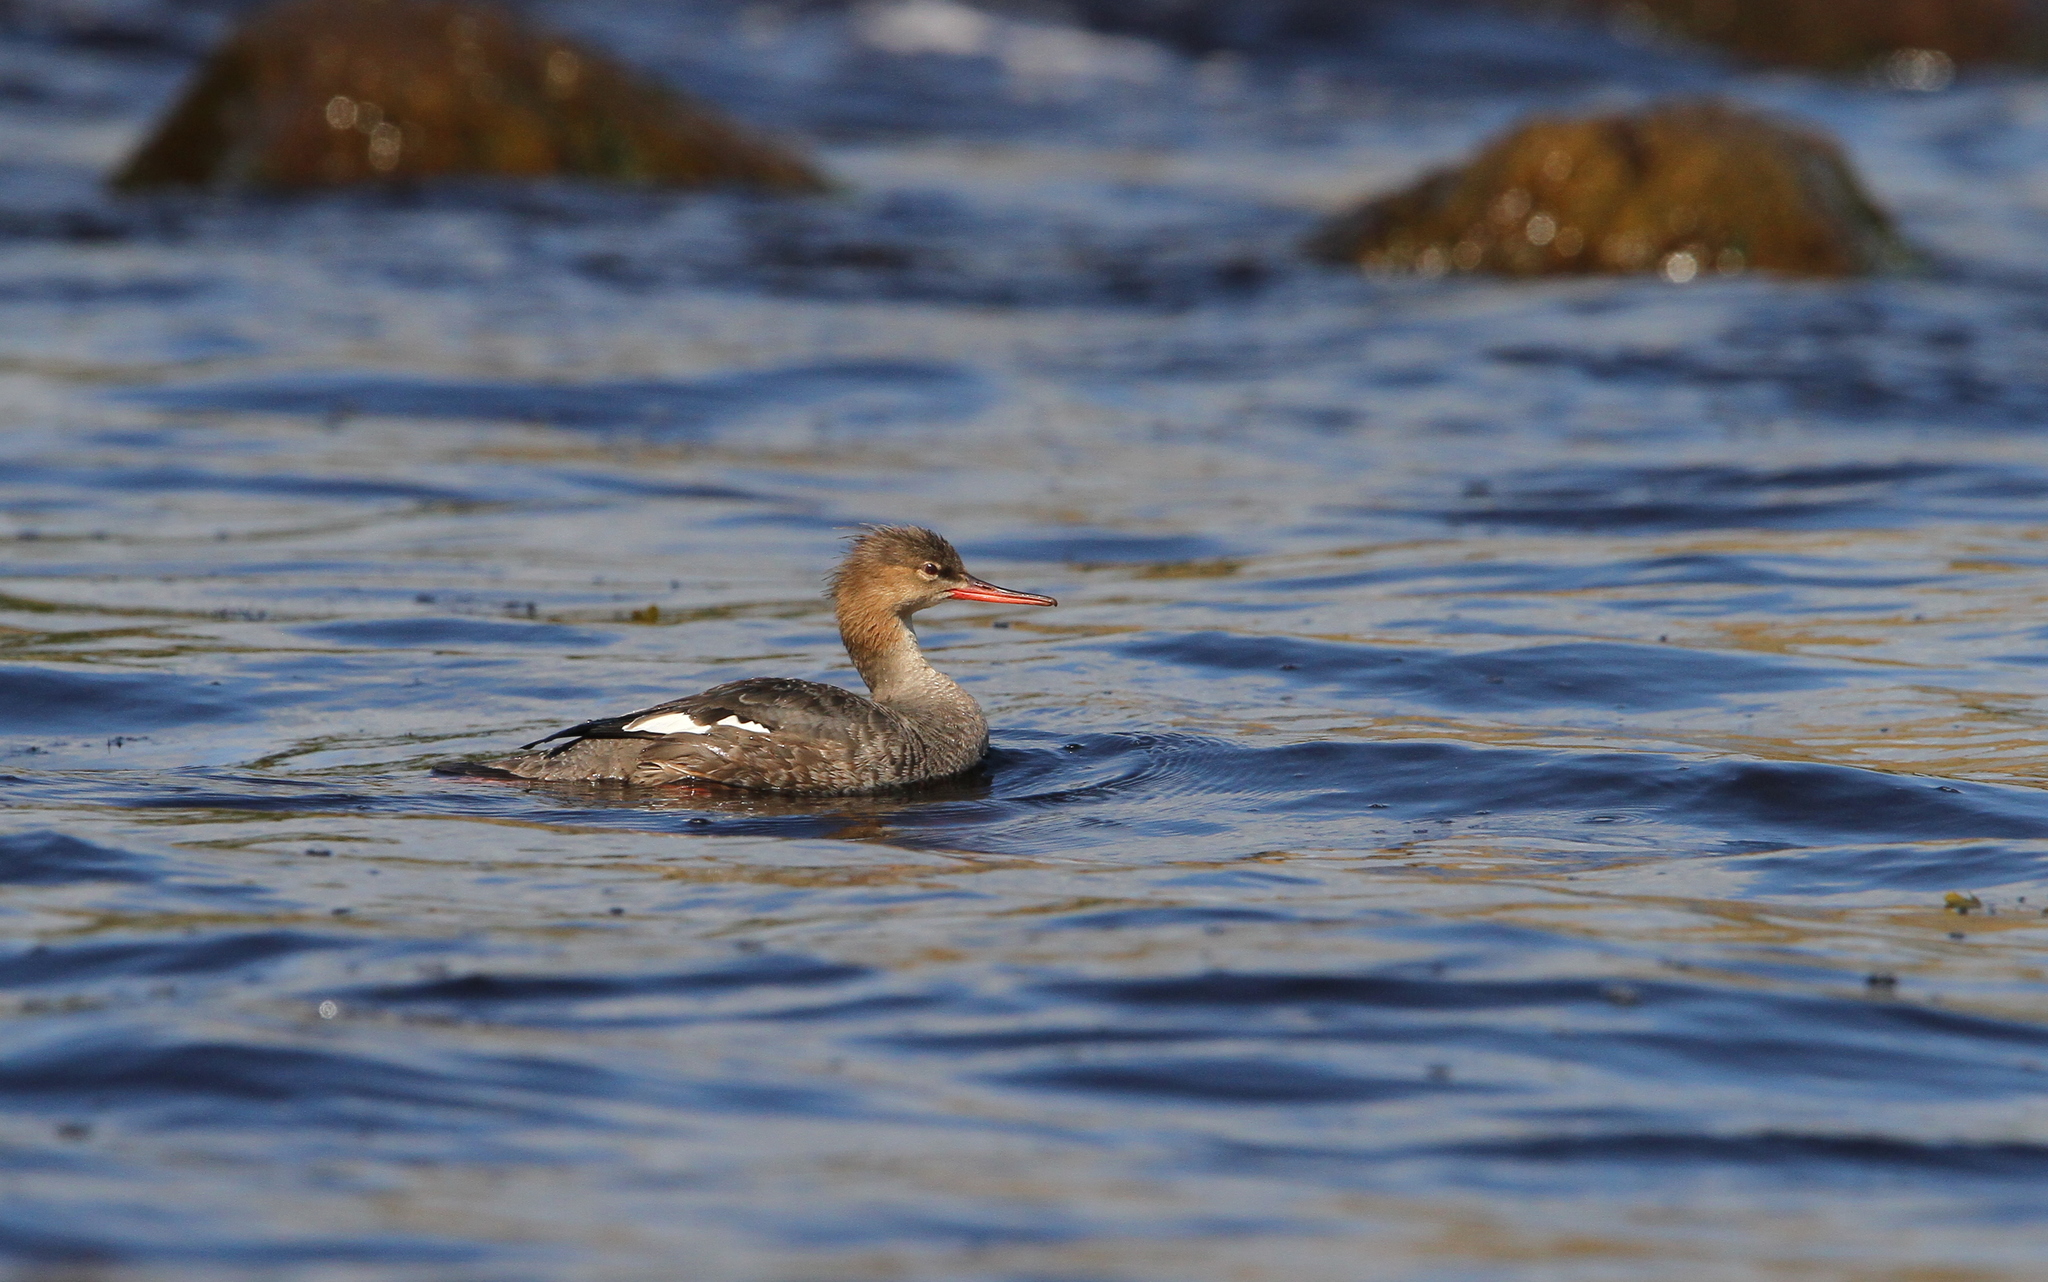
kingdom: Animalia
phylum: Chordata
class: Aves
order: Anseriformes
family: Anatidae
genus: Mergus
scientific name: Mergus serrator
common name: Red-breasted merganser
